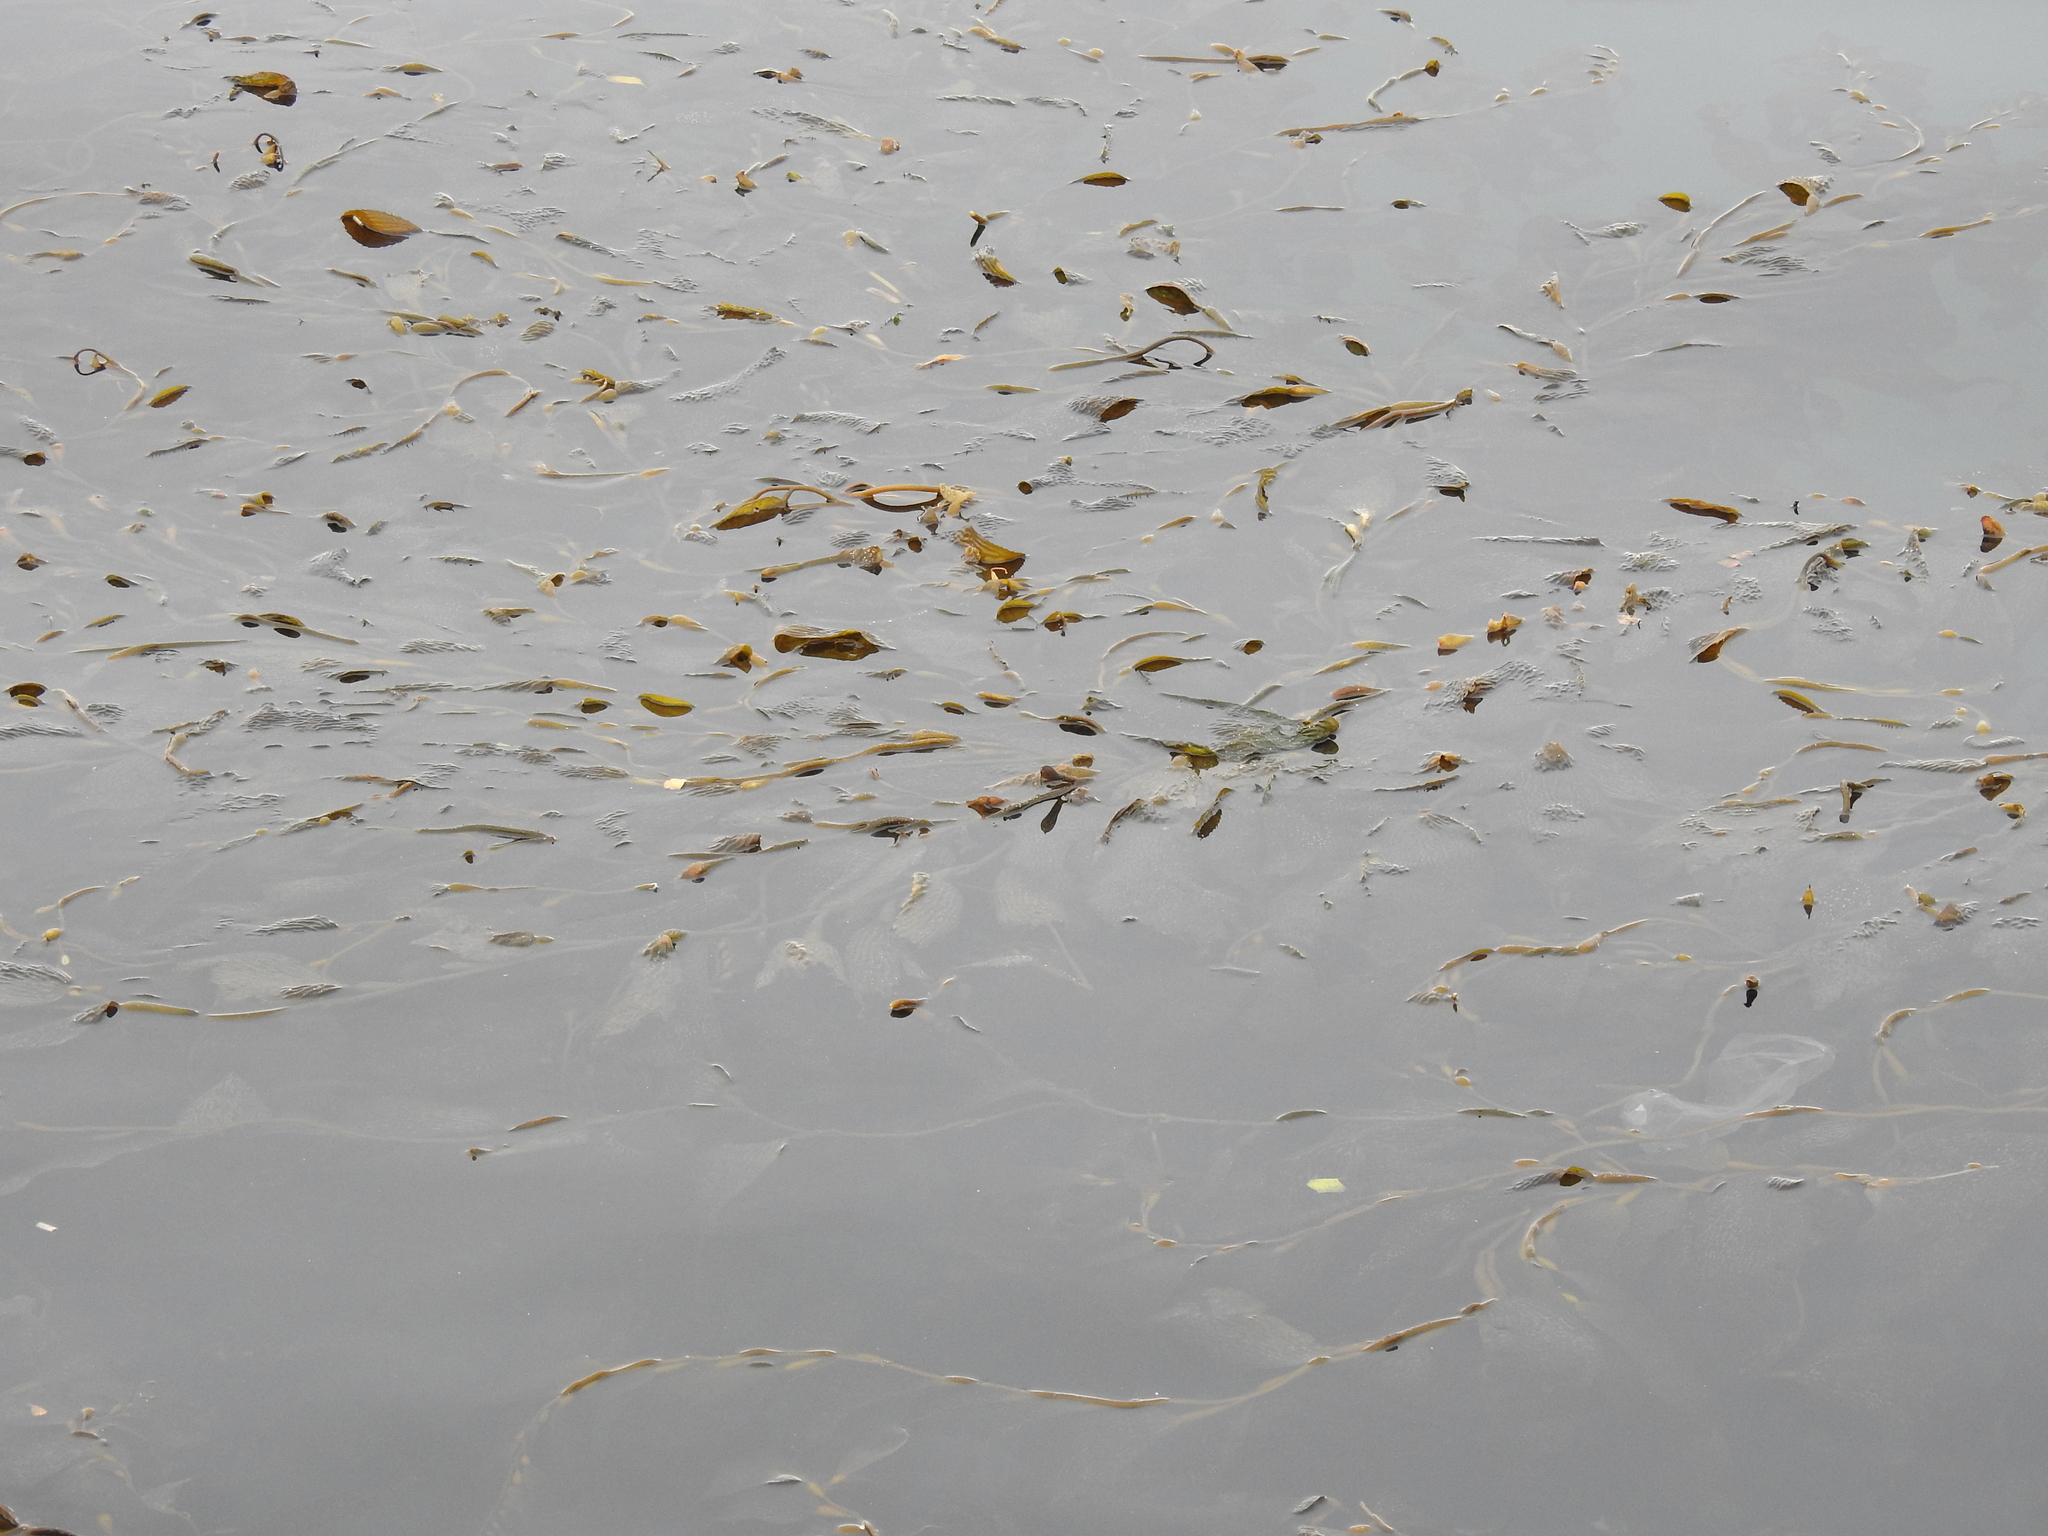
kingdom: Chromista
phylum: Ochrophyta
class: Phaeophyceae
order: Laminariales
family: Laminariaceae
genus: Macrocystis
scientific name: Macrocystis pyrifera
